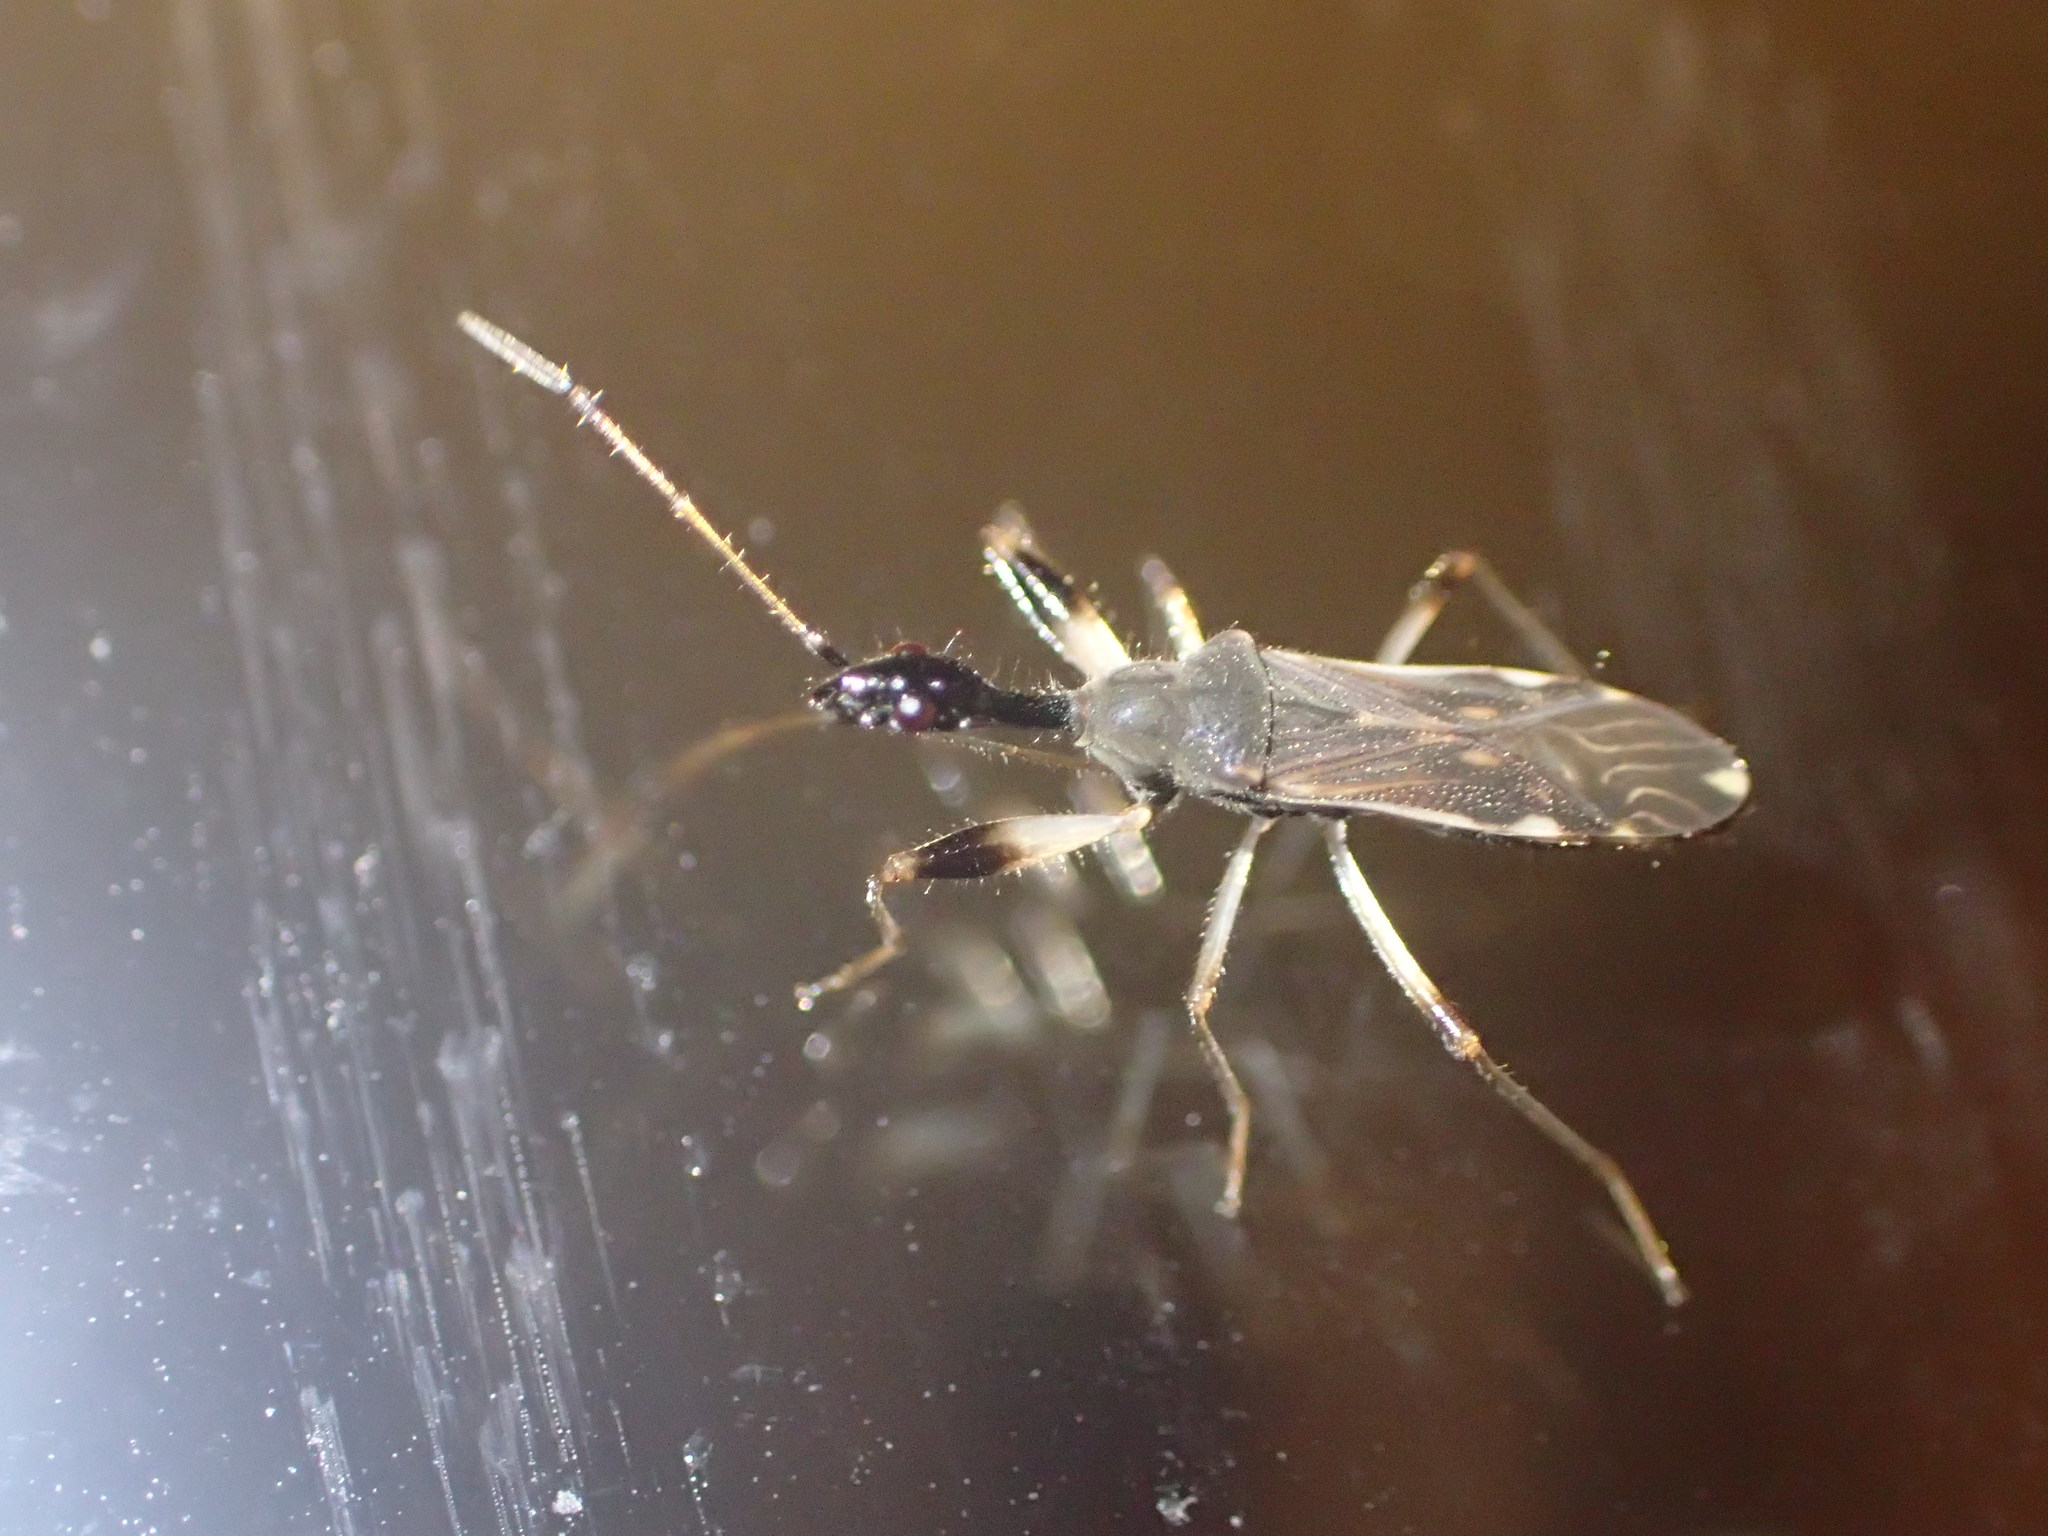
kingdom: Animalia
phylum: Arthropoda
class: Insecta
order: Hemiptera
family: Rhyparochromidae
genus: Myodocha
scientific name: Myodocha serripes
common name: Long-necked seed bug
